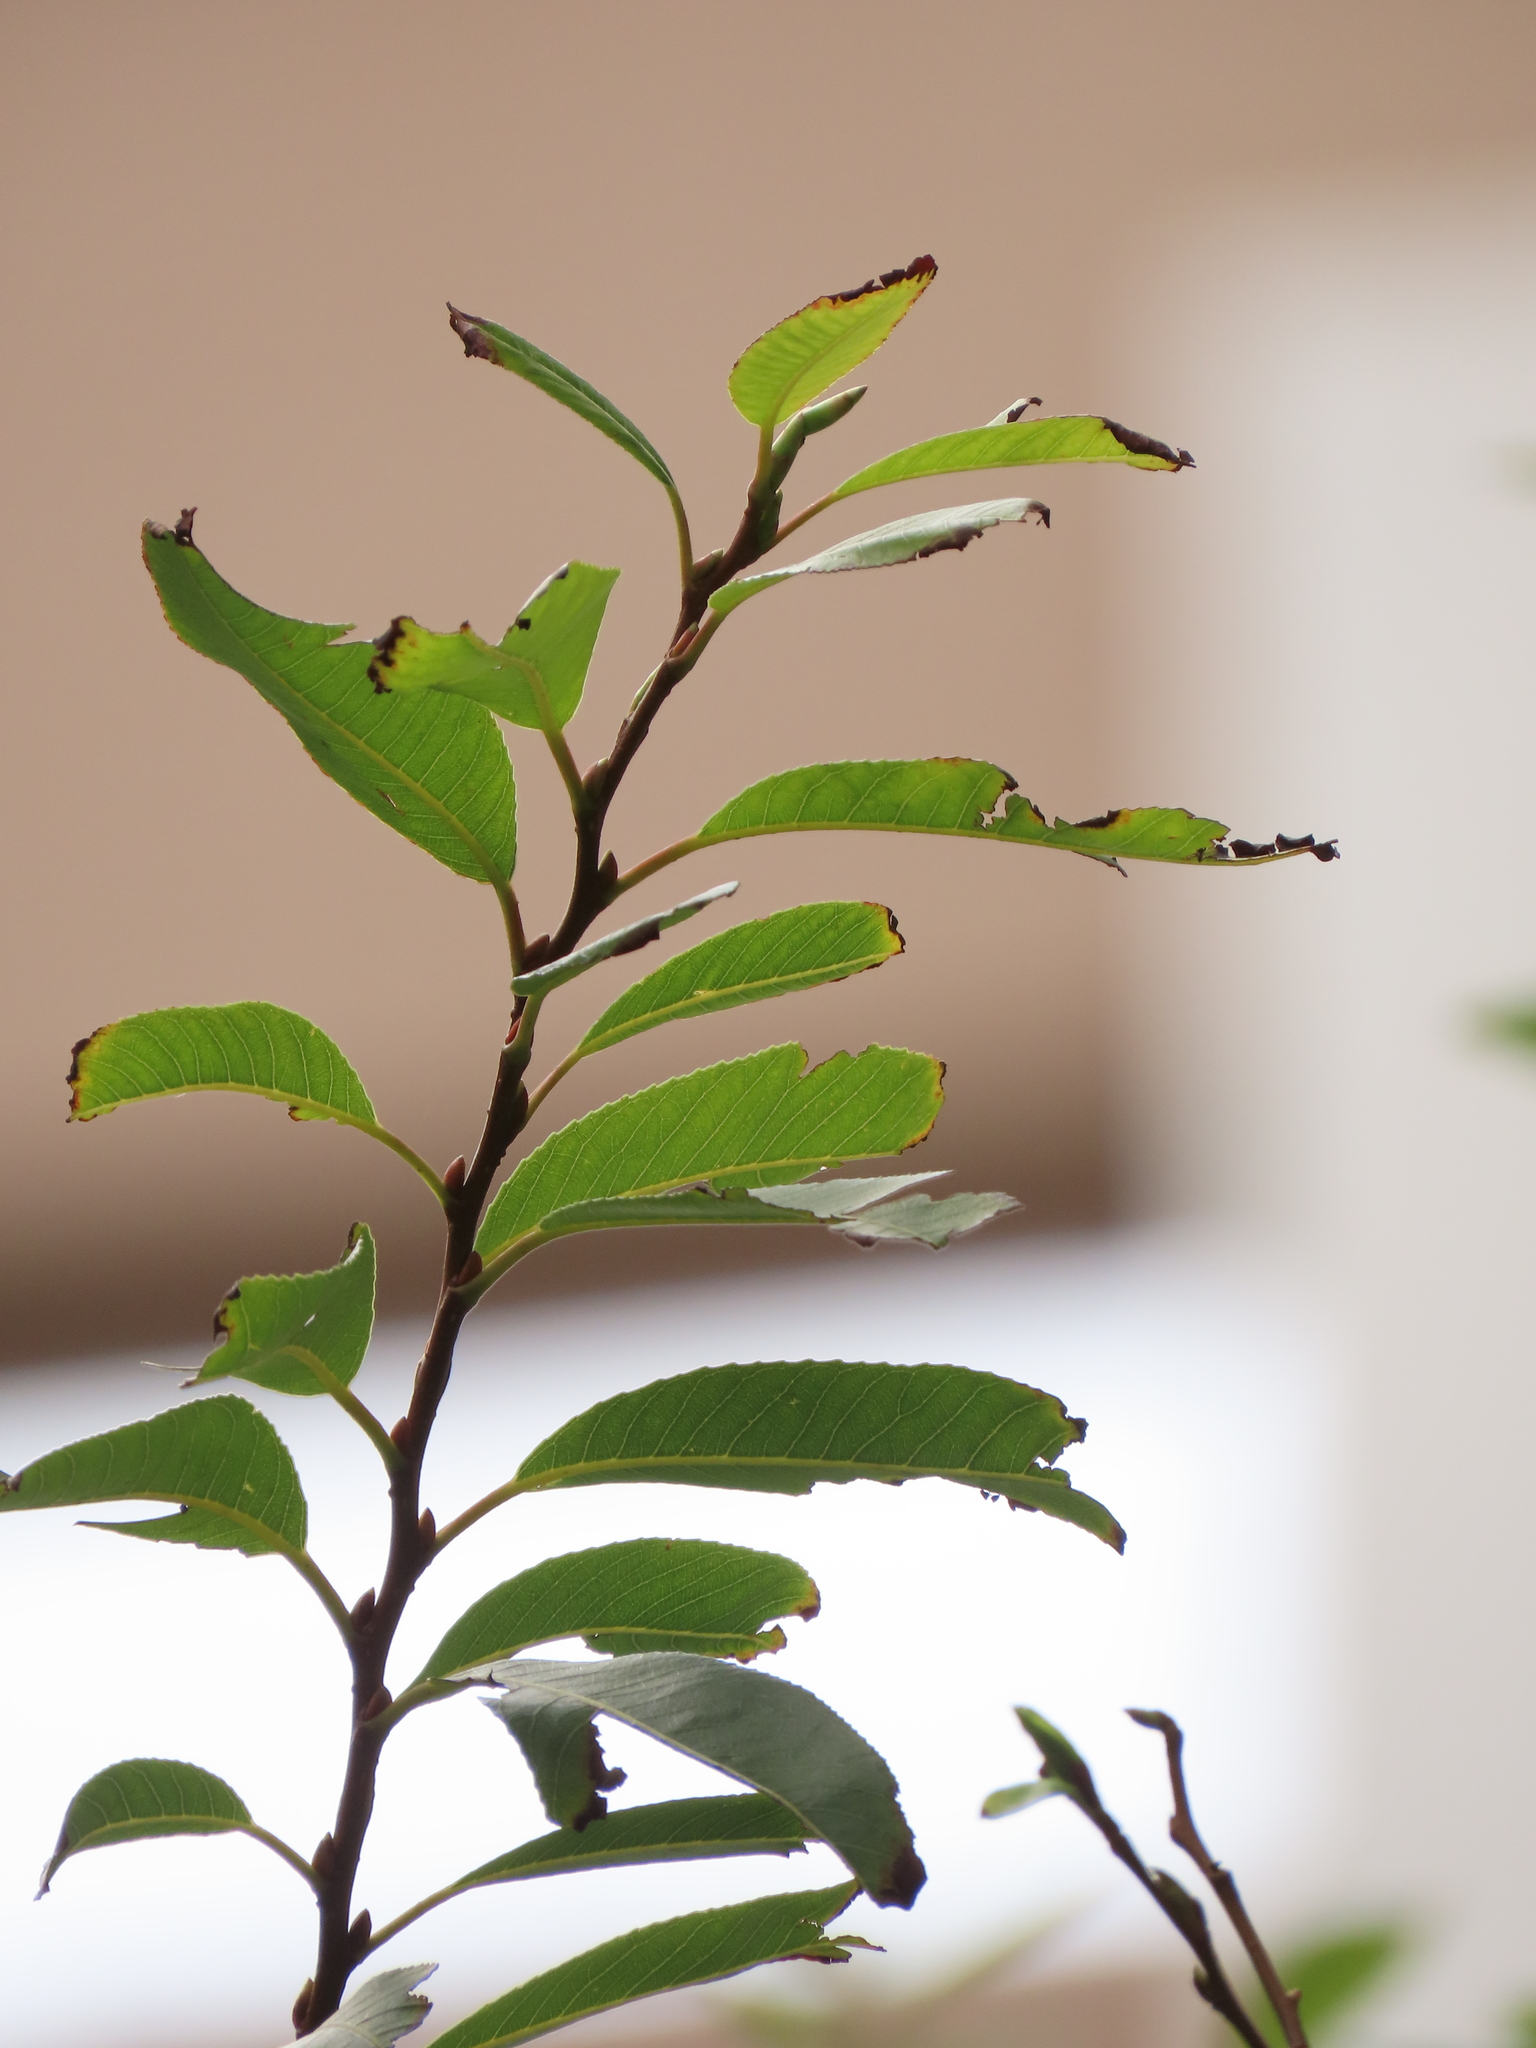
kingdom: Plantae
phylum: Tracheophyta
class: Magnoliopsida
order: Malpighiales
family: Salicaceae
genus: Salix
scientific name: Salix mesnyi
